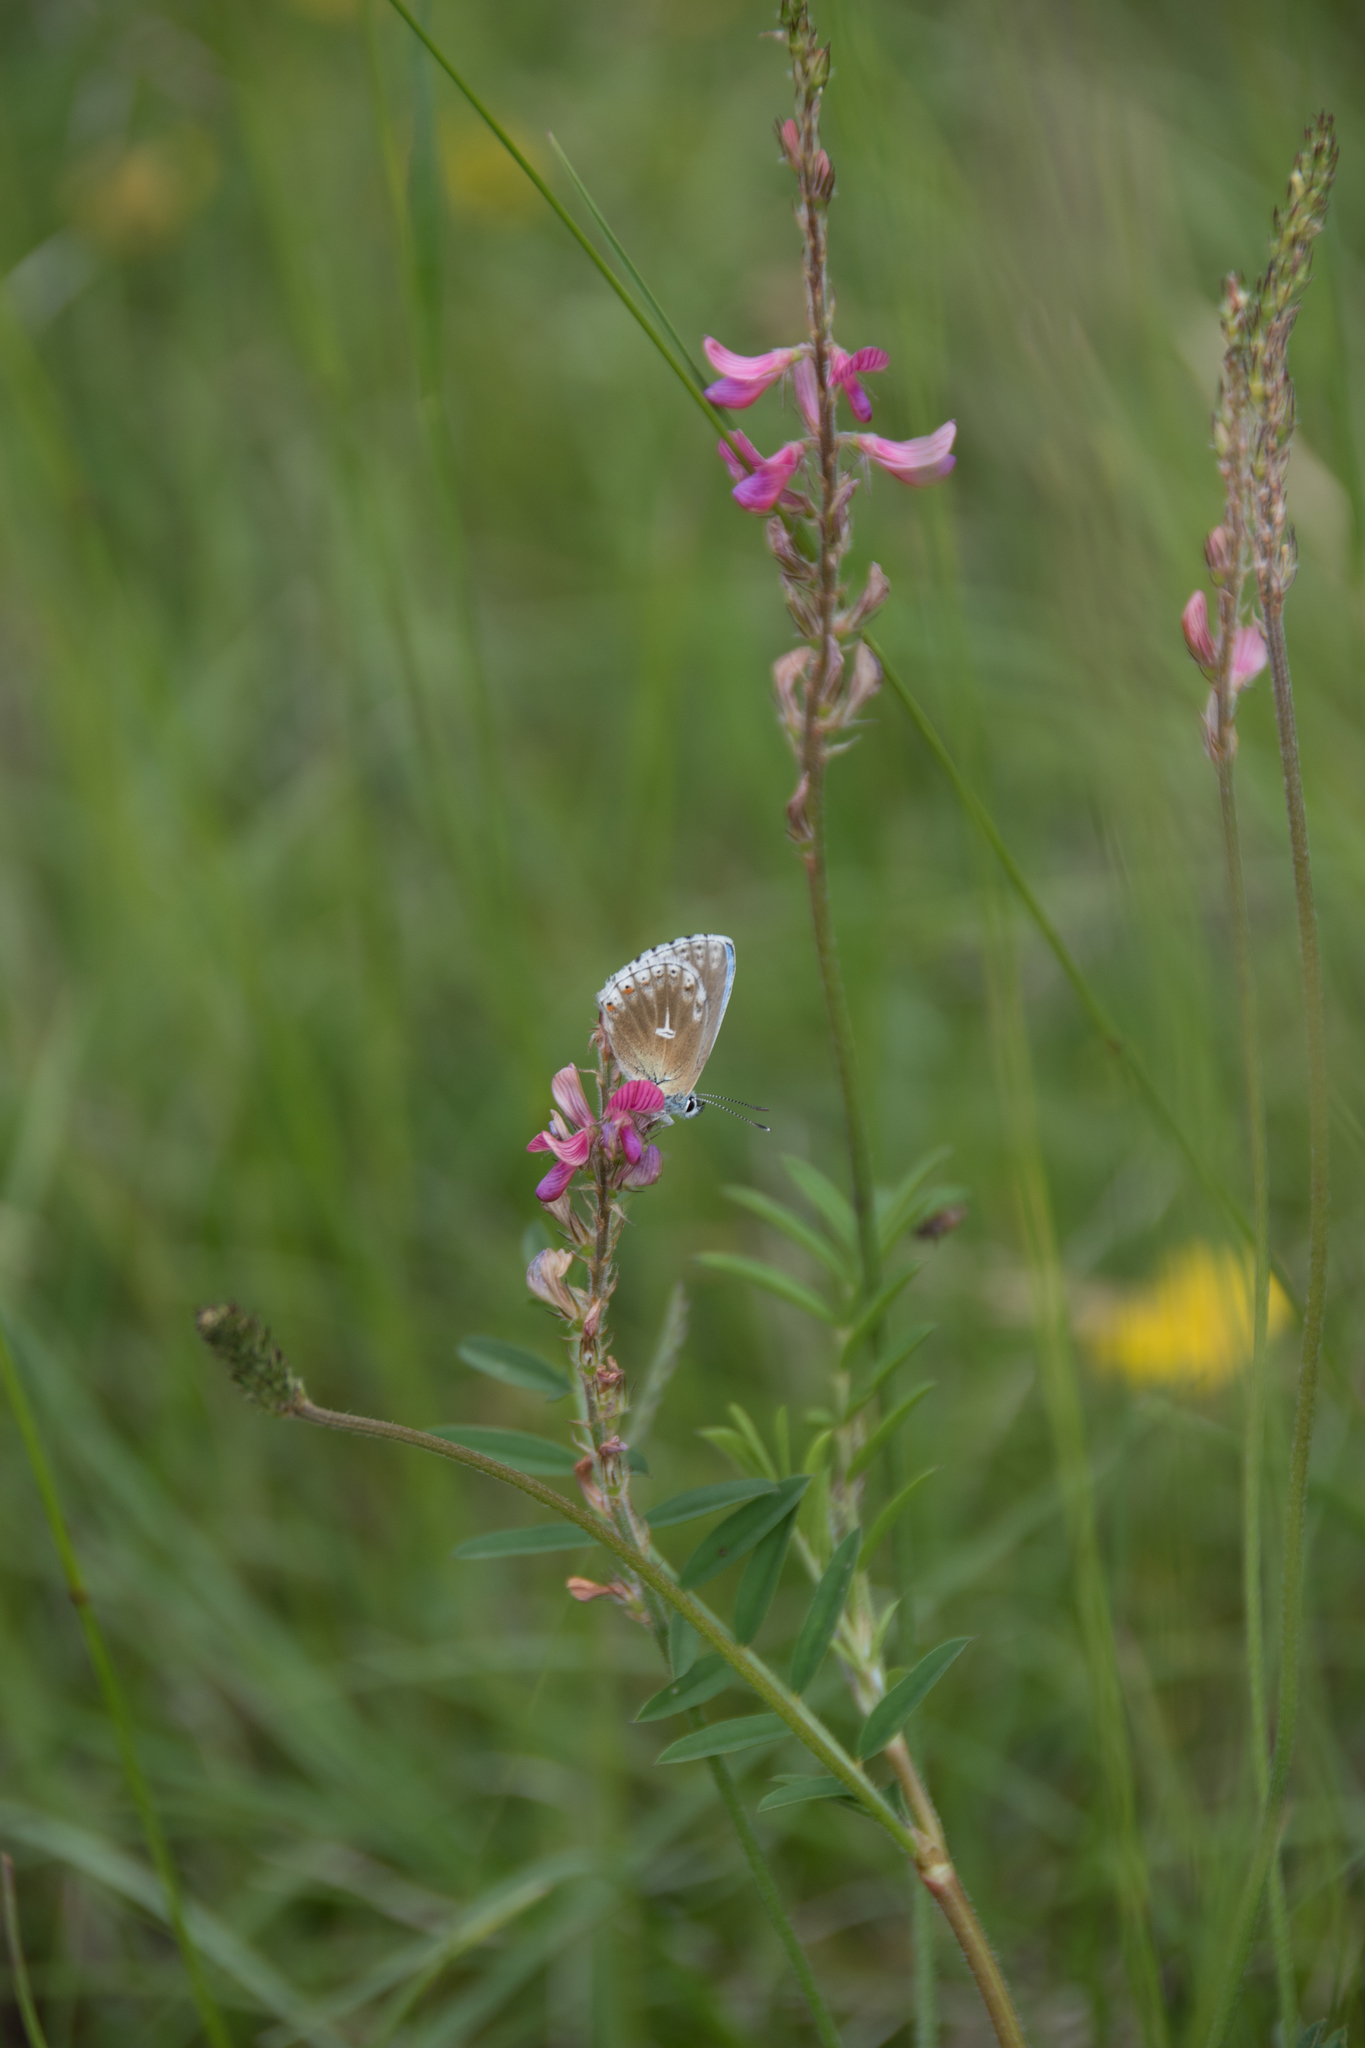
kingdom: Animalia
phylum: Arthropoda
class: Insecta
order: Lepidoptera
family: Lycaenidae
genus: Lysandra
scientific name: Lysandra bellargus
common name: Adonis blue
